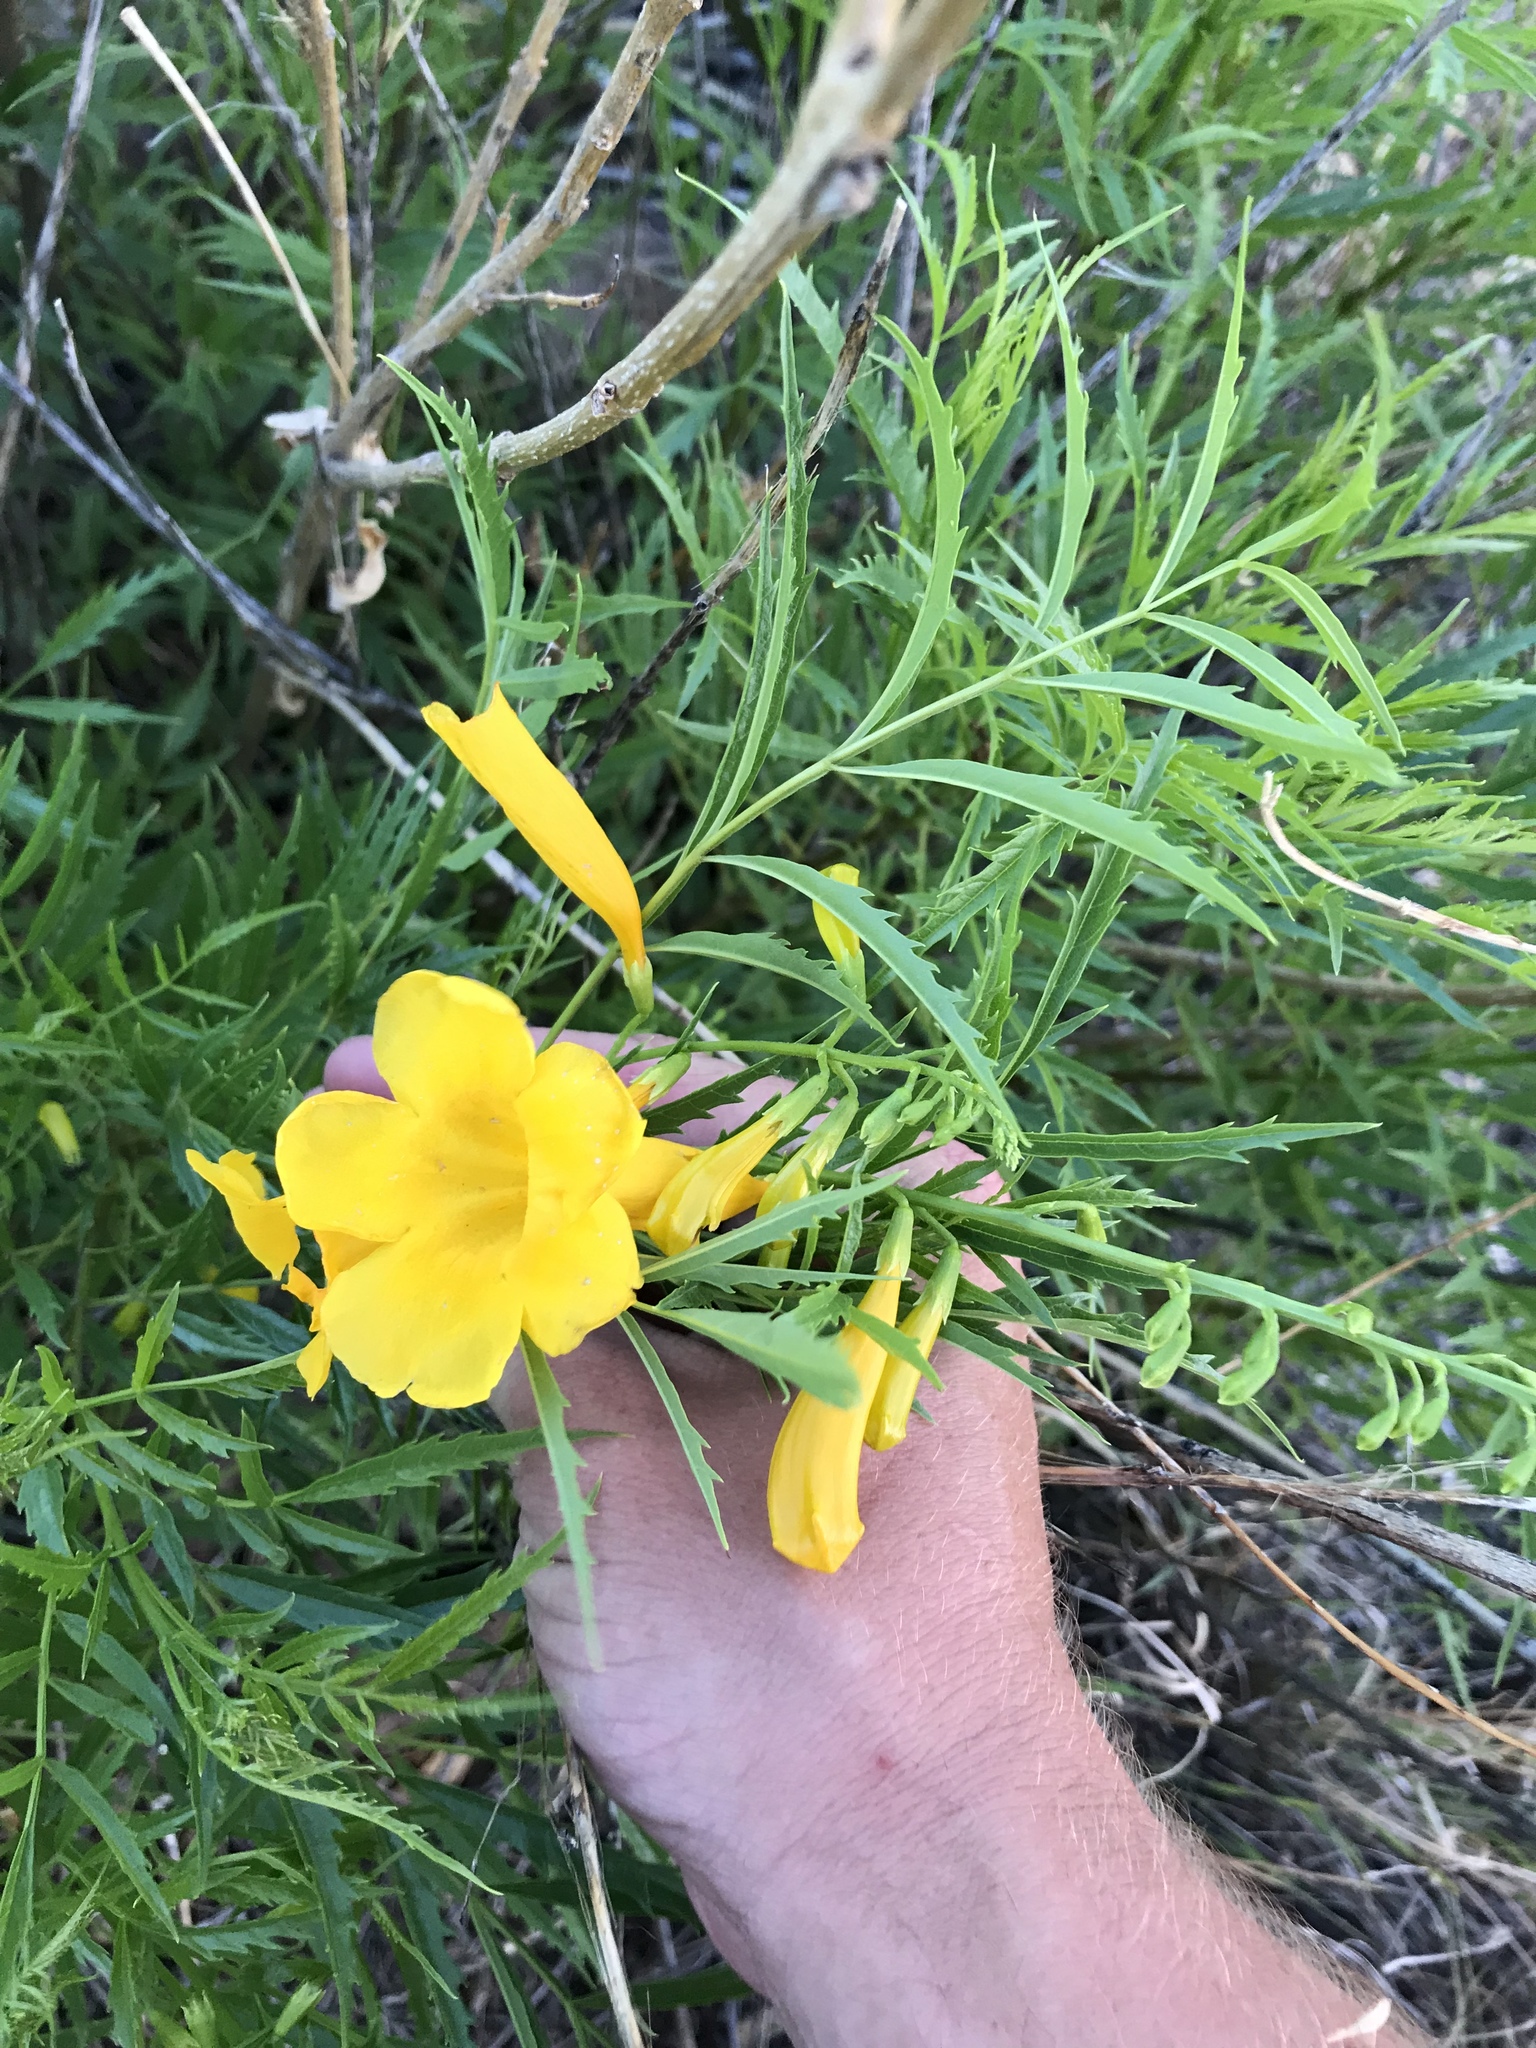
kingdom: Plantae
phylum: Tracheophyta
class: Magnoliopsida
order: Lamiales
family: Bignoniaceae
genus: Tecoma
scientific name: Tecoma stans
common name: Yellow trumpetbush
